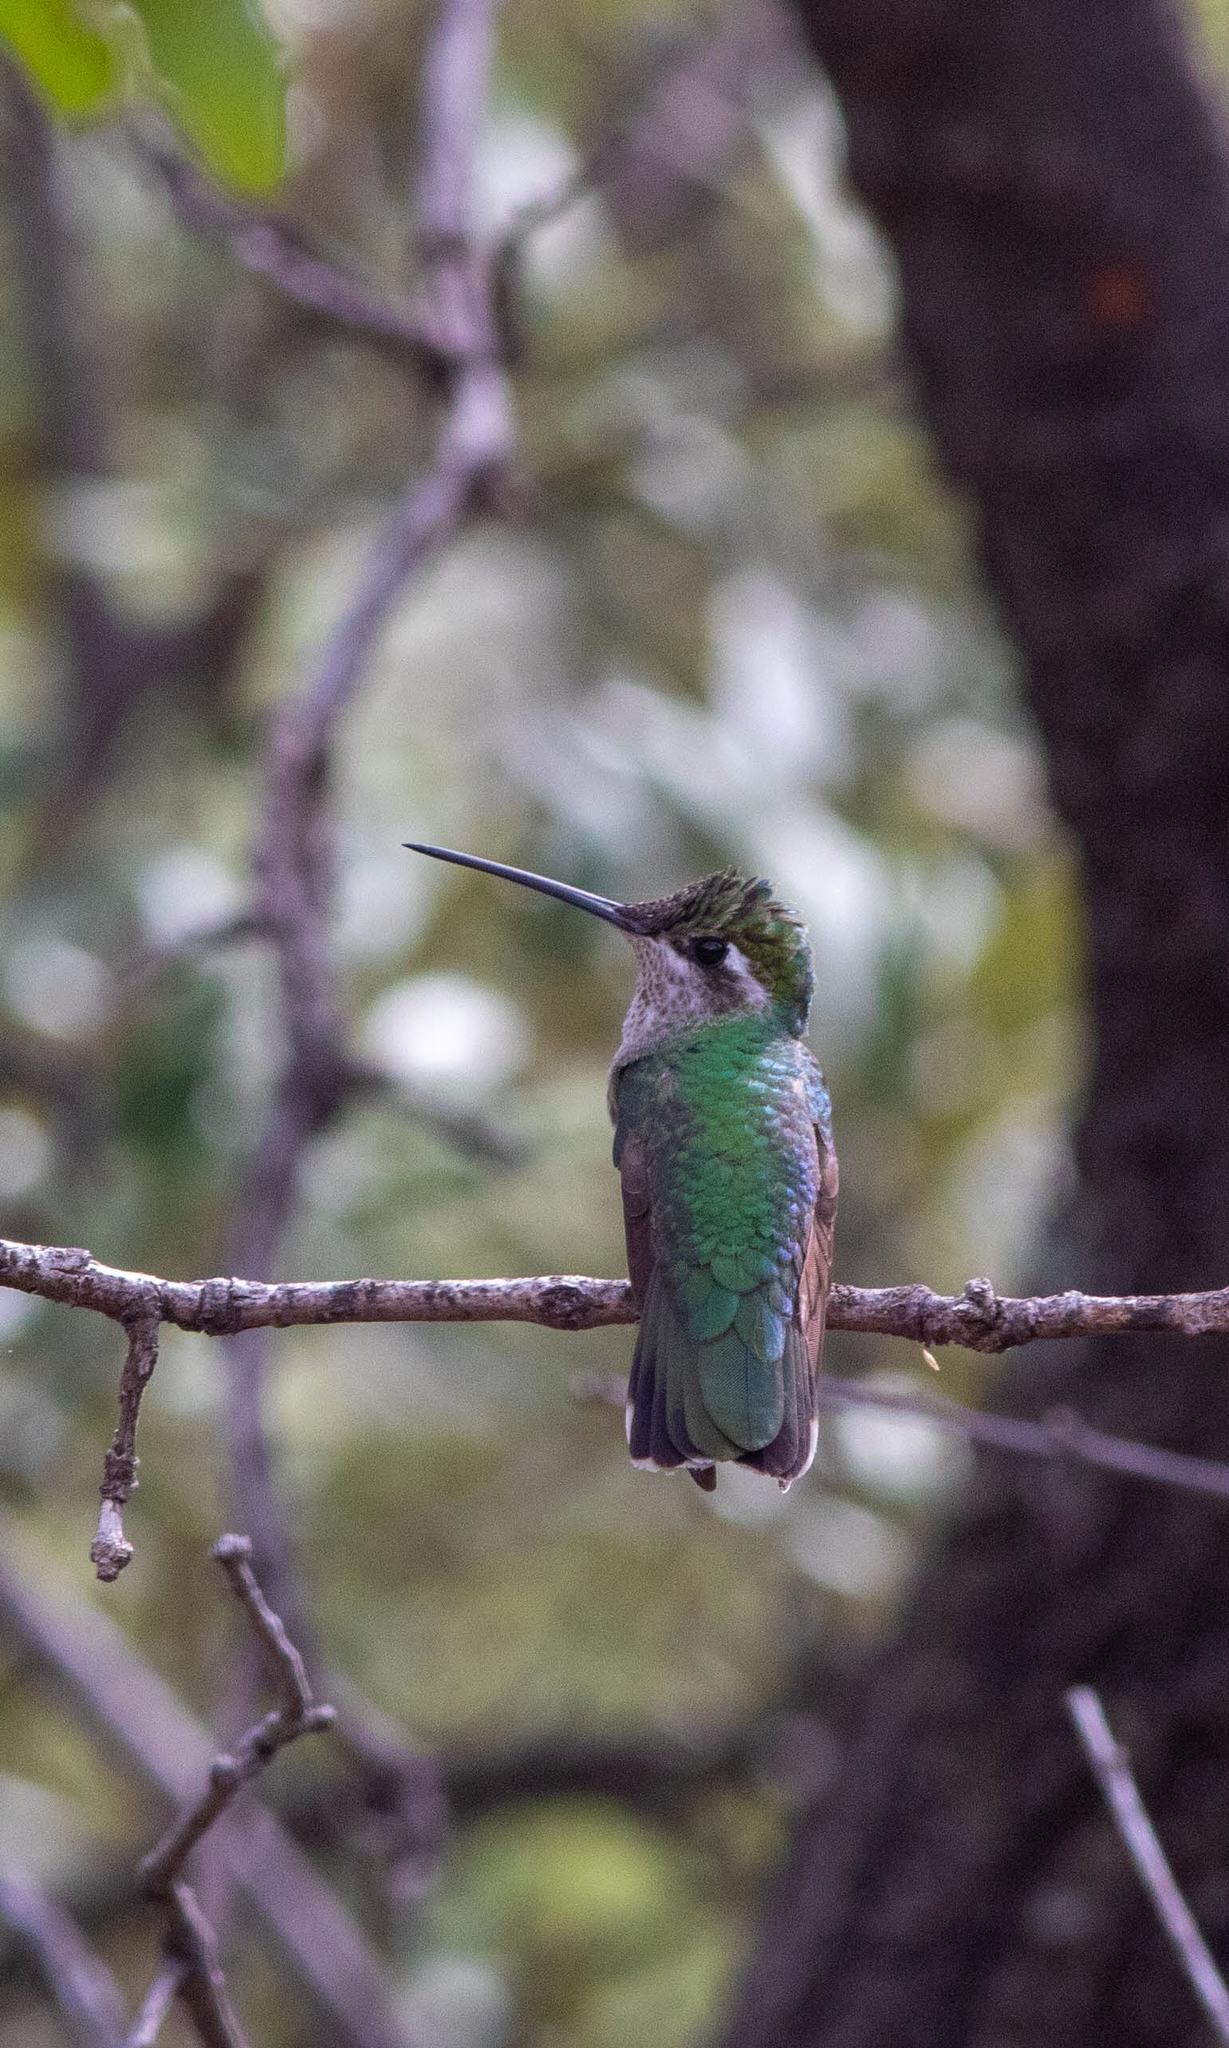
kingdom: Animalia
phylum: Chordata
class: Aves
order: Apodiformes
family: Trochilidae
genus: Eugenes
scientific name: Eugenes fulgens
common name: Magnificent hummingbird
